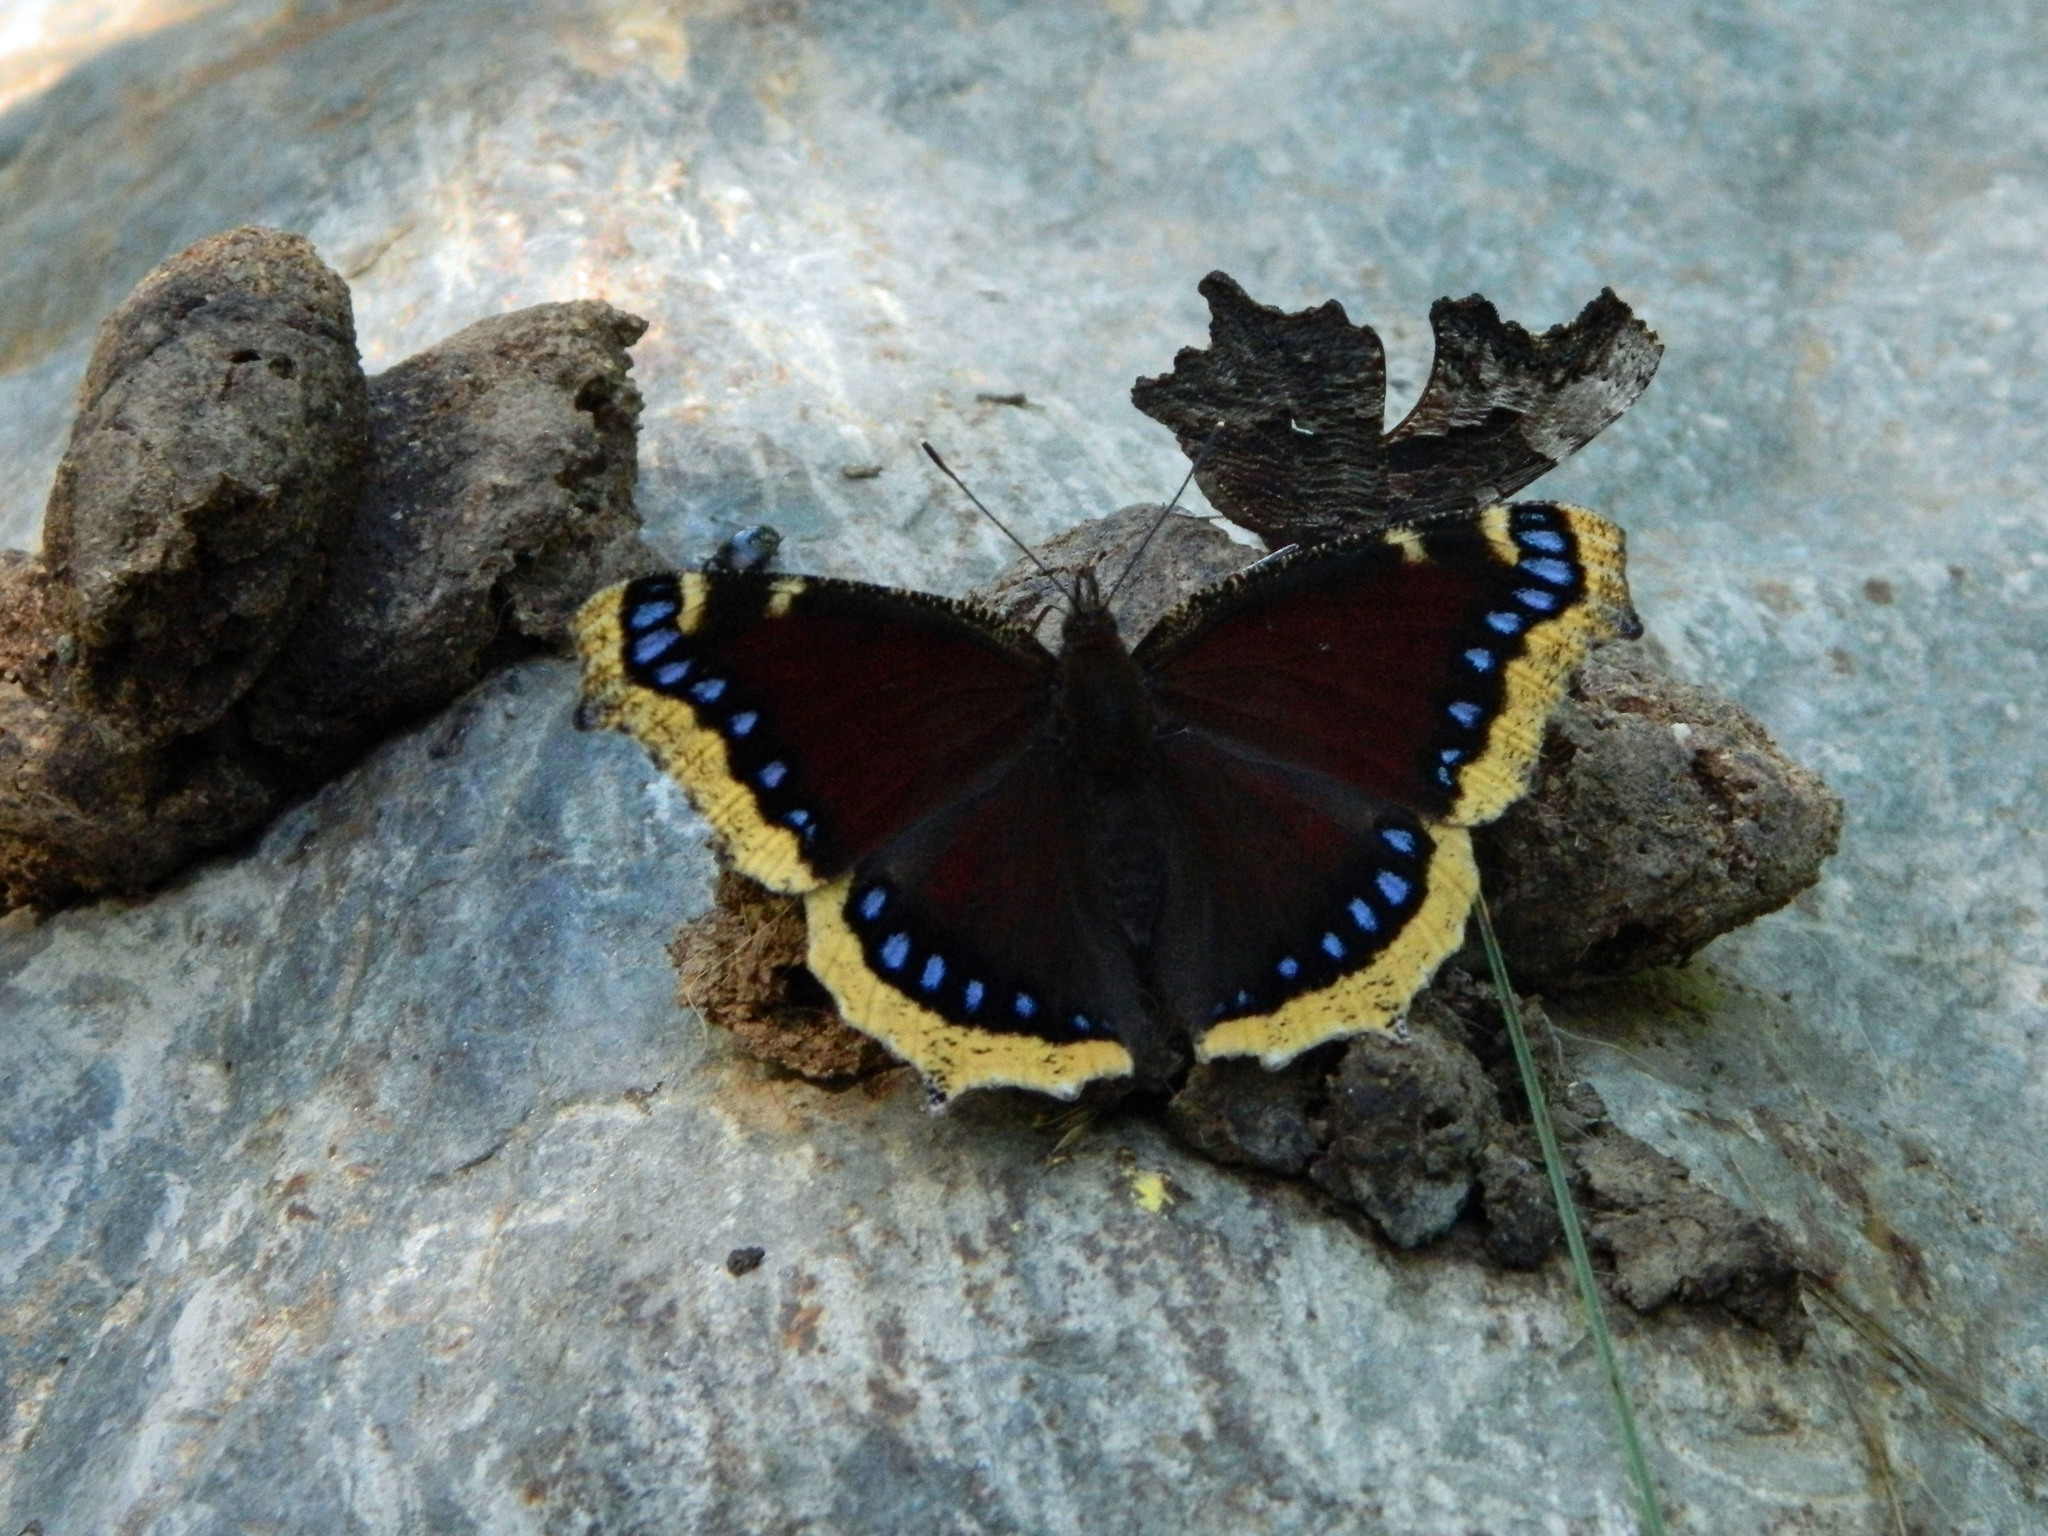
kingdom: Animalia
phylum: Arthropoda
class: Insecta
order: Lepidoptera
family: Nymphalidae
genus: Nymphalis
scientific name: Nymphalis antiopa
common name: Camberwell beauty
